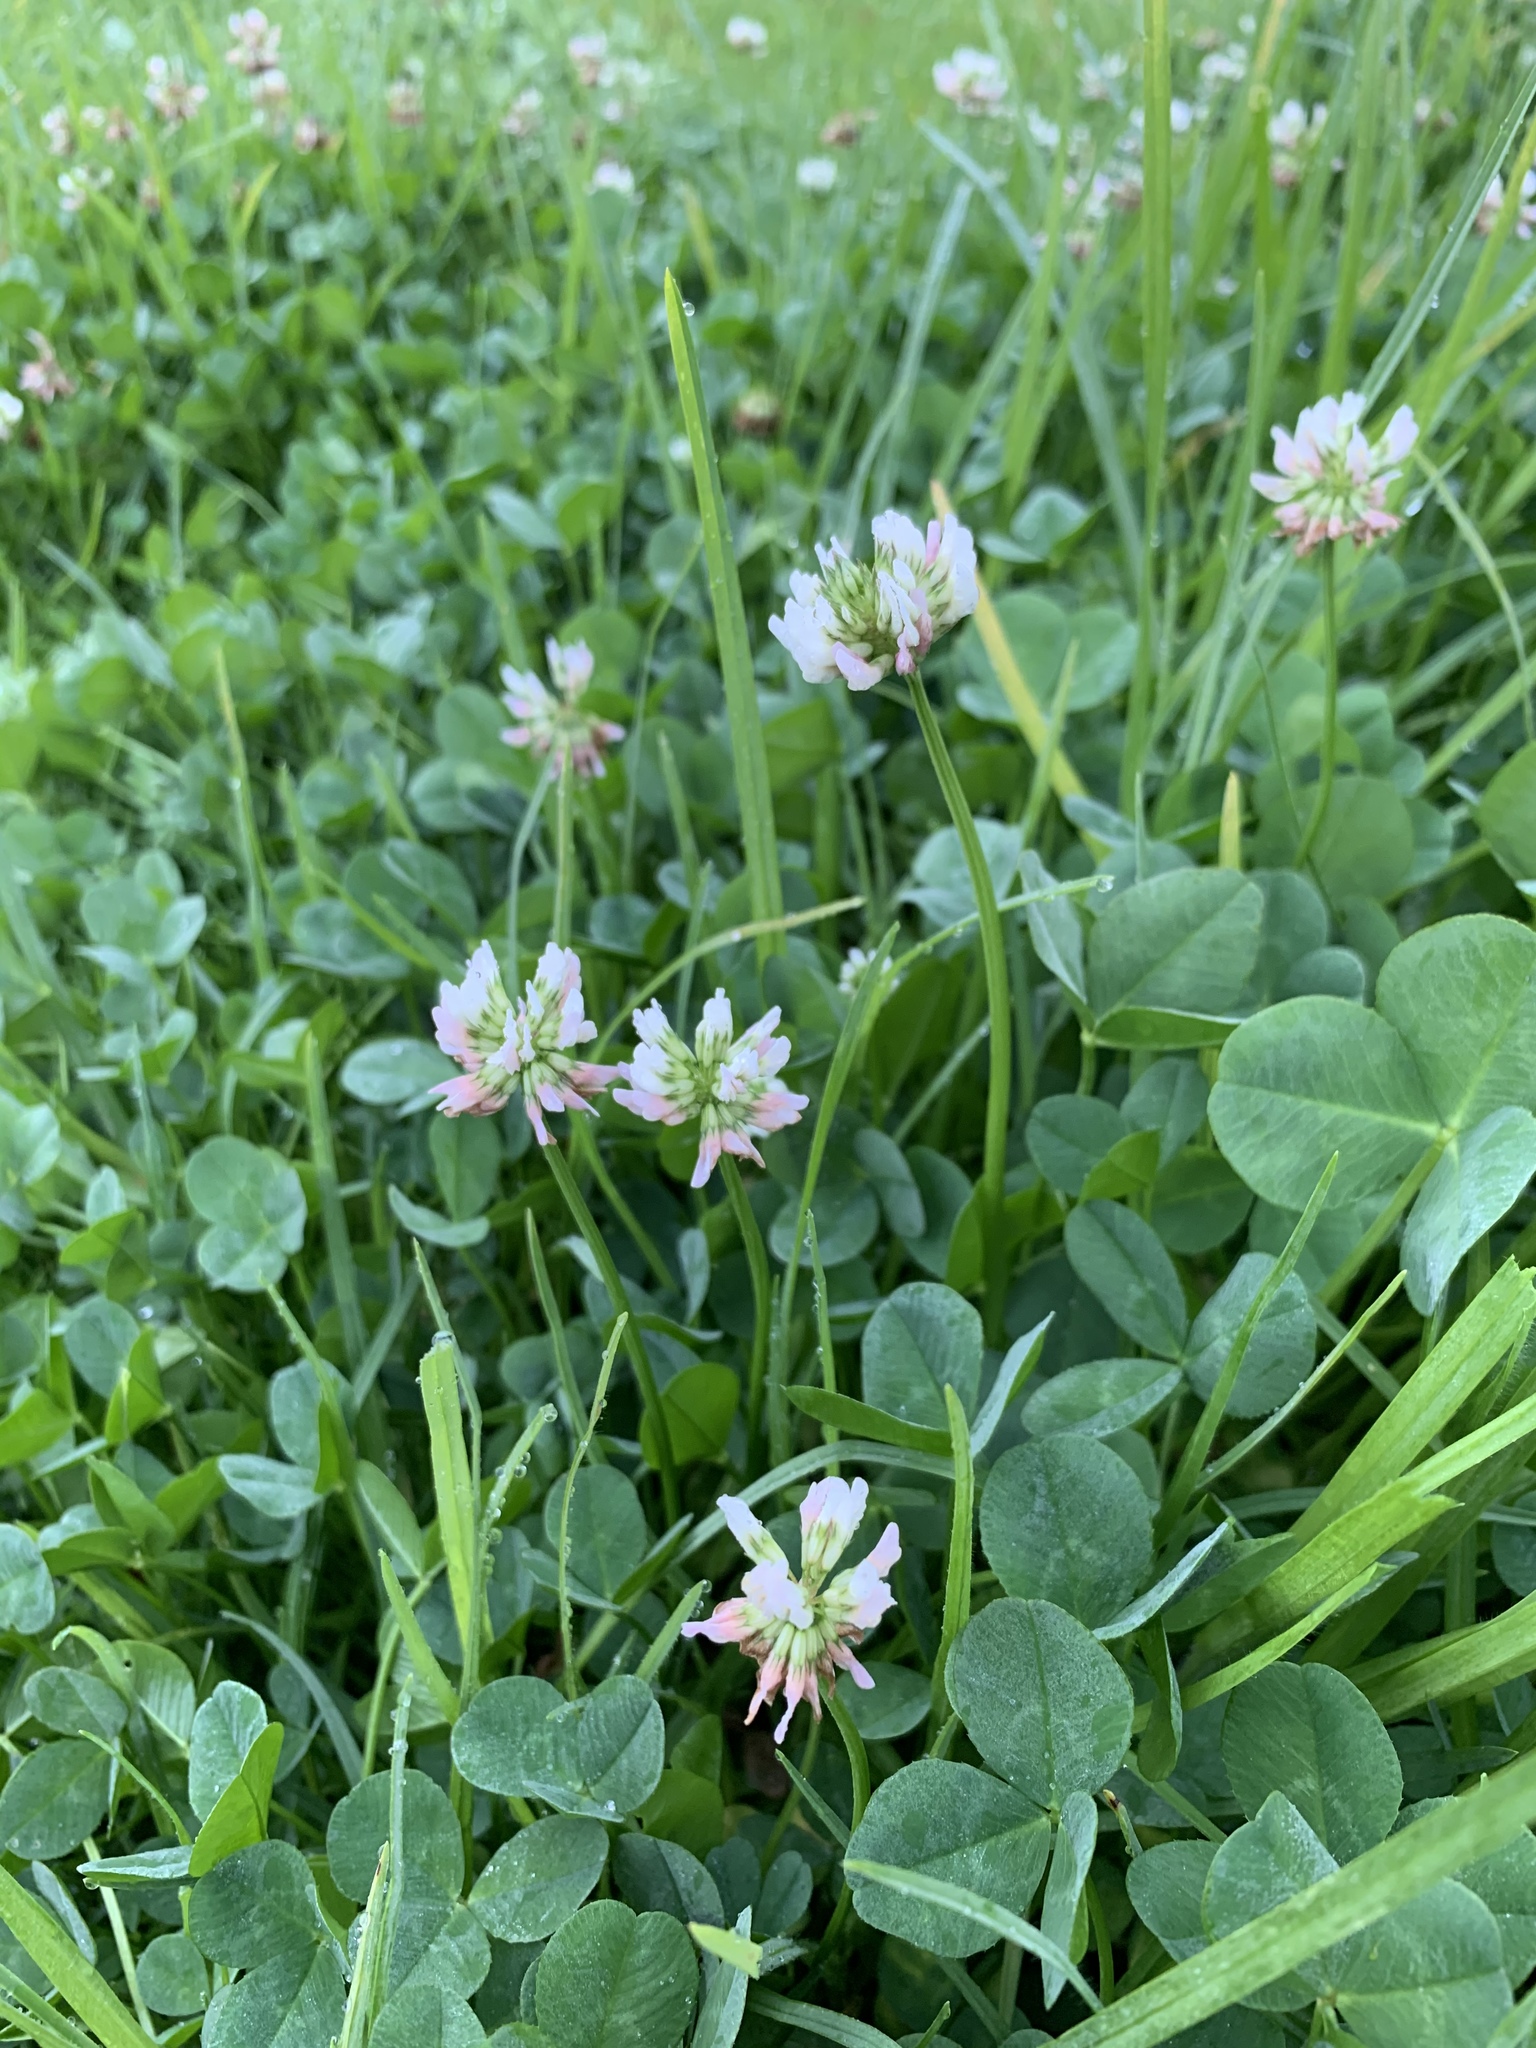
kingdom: Plantae
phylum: Tracheophyta
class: Magnoliopsida
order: Fabales
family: Fabaceae
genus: Trifolium
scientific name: Trifolium repens
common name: White clover
